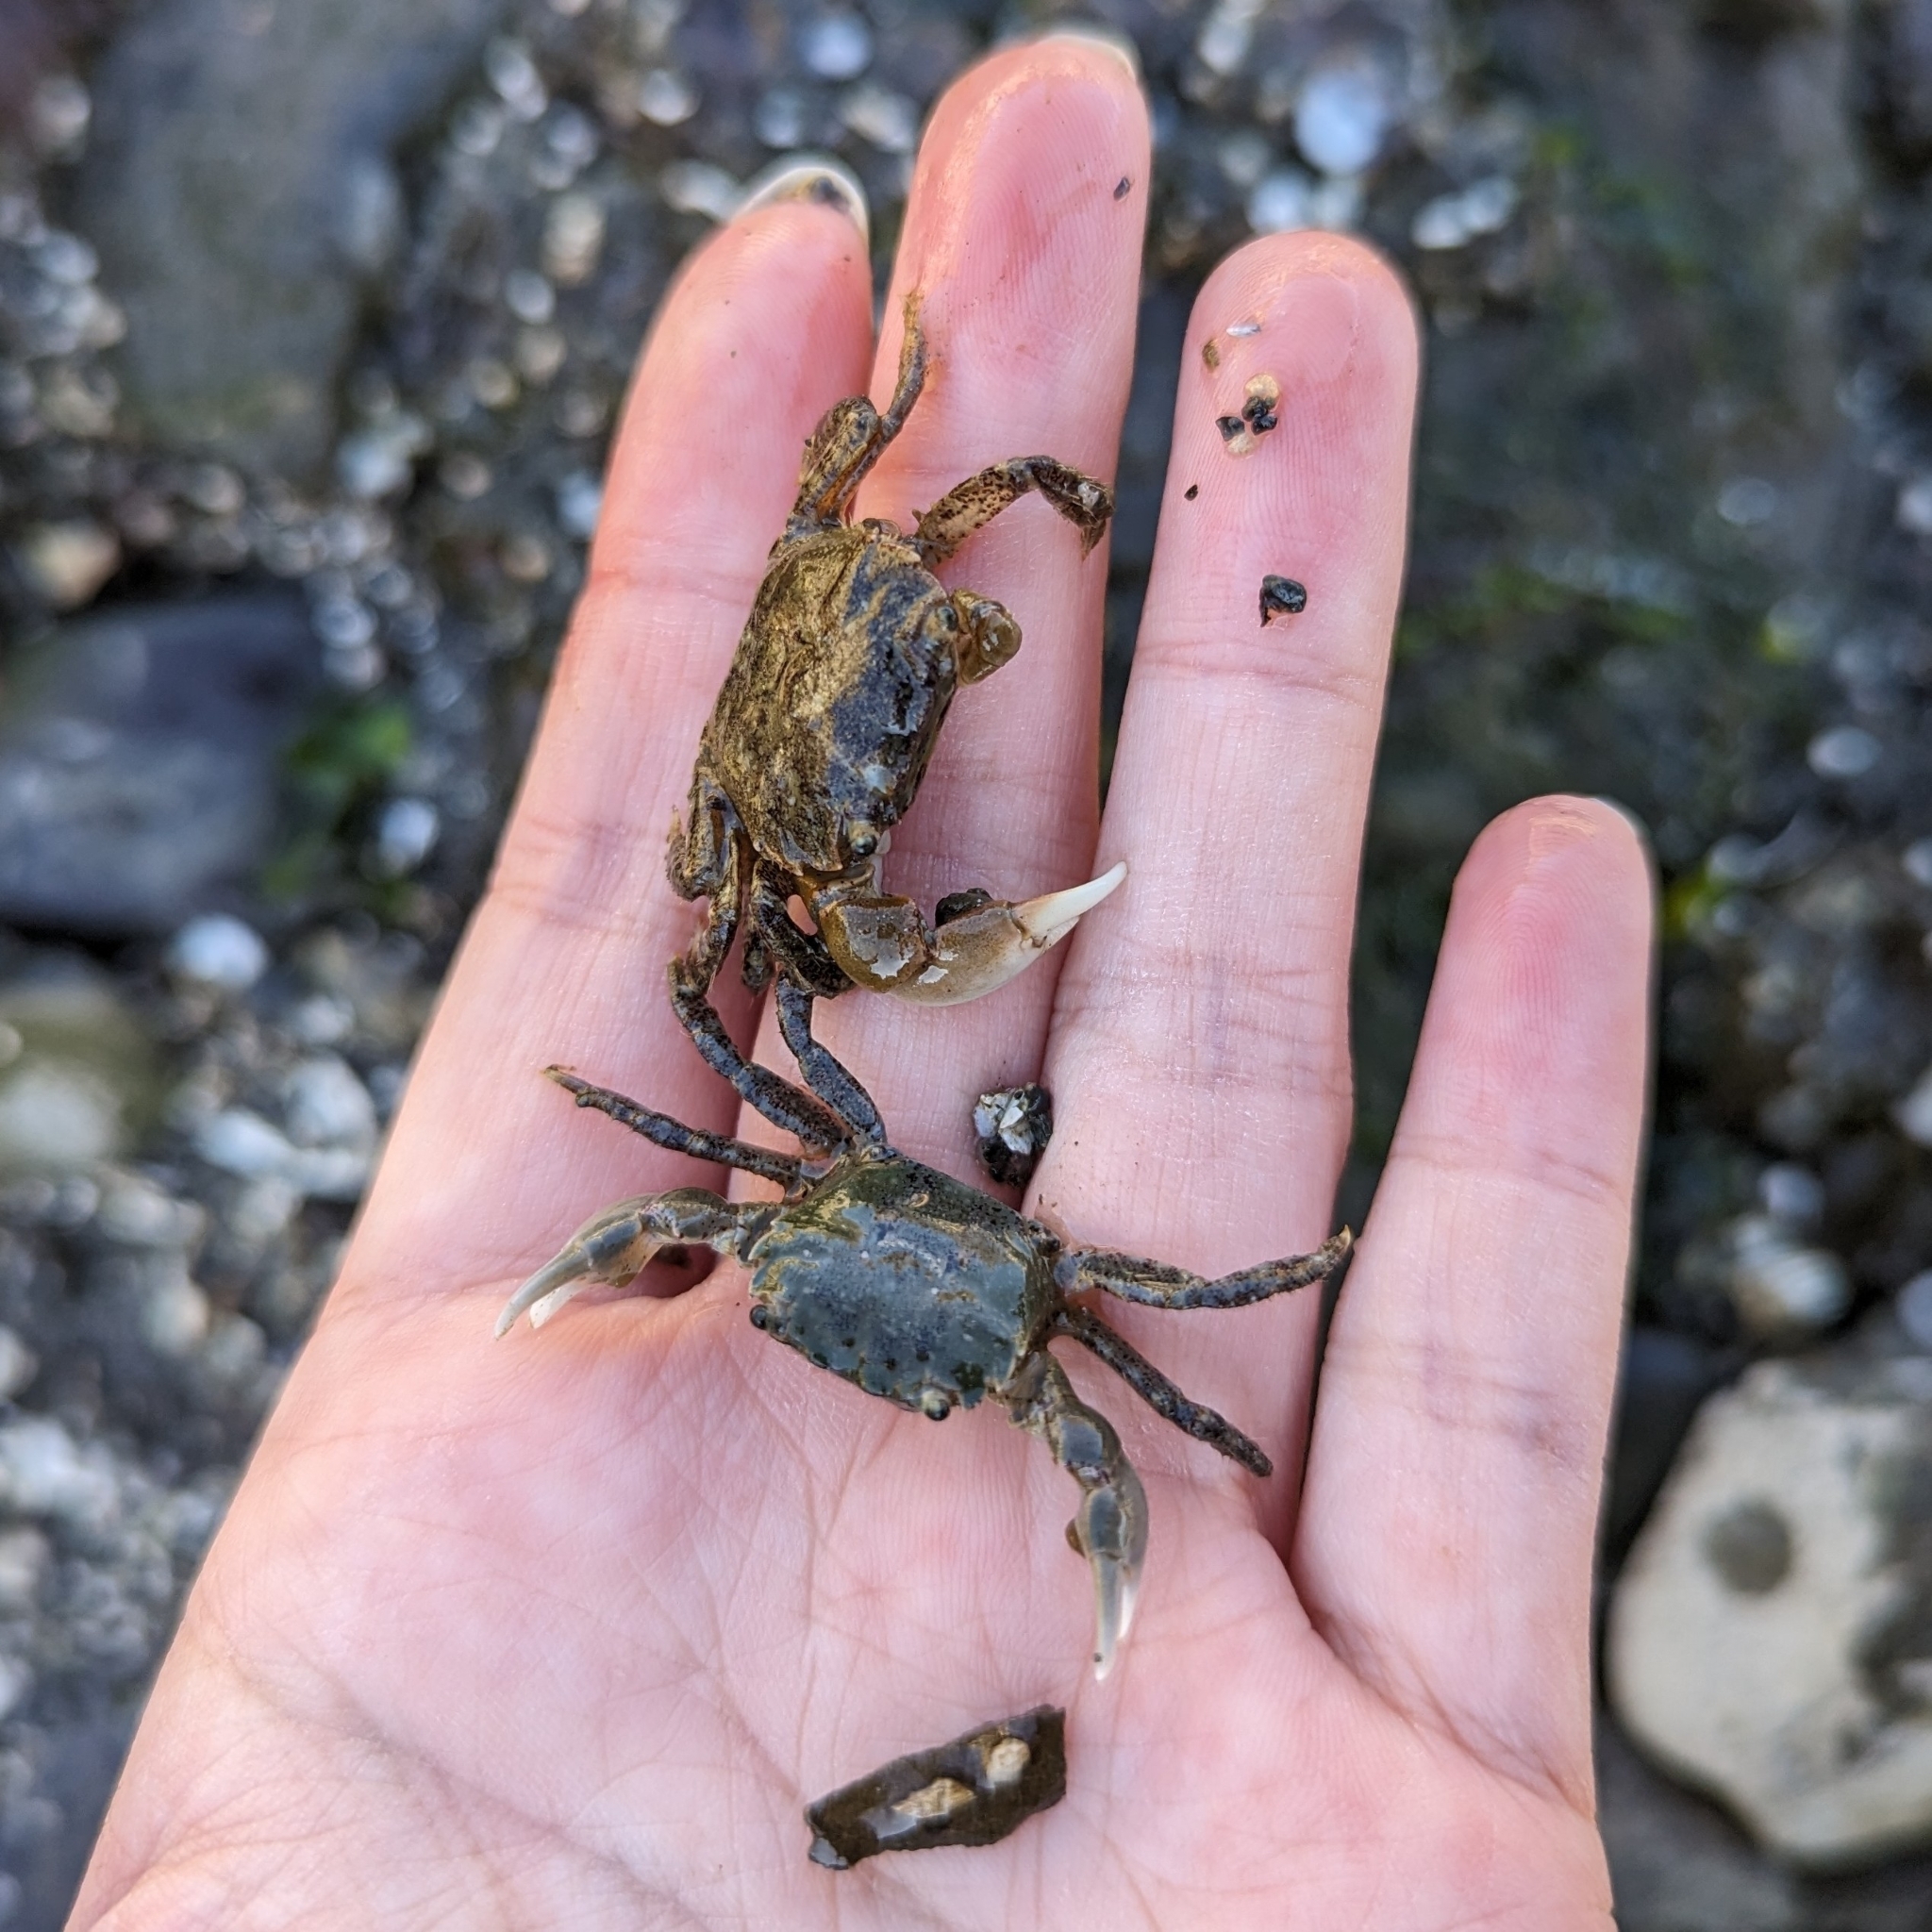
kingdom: Animalia
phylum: Arthropoda
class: Malacostraca
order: Decapoda
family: Varunidae
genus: Hemigrapsus
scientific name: Hemigrapsus oregonensis
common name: Yellow shore crab
